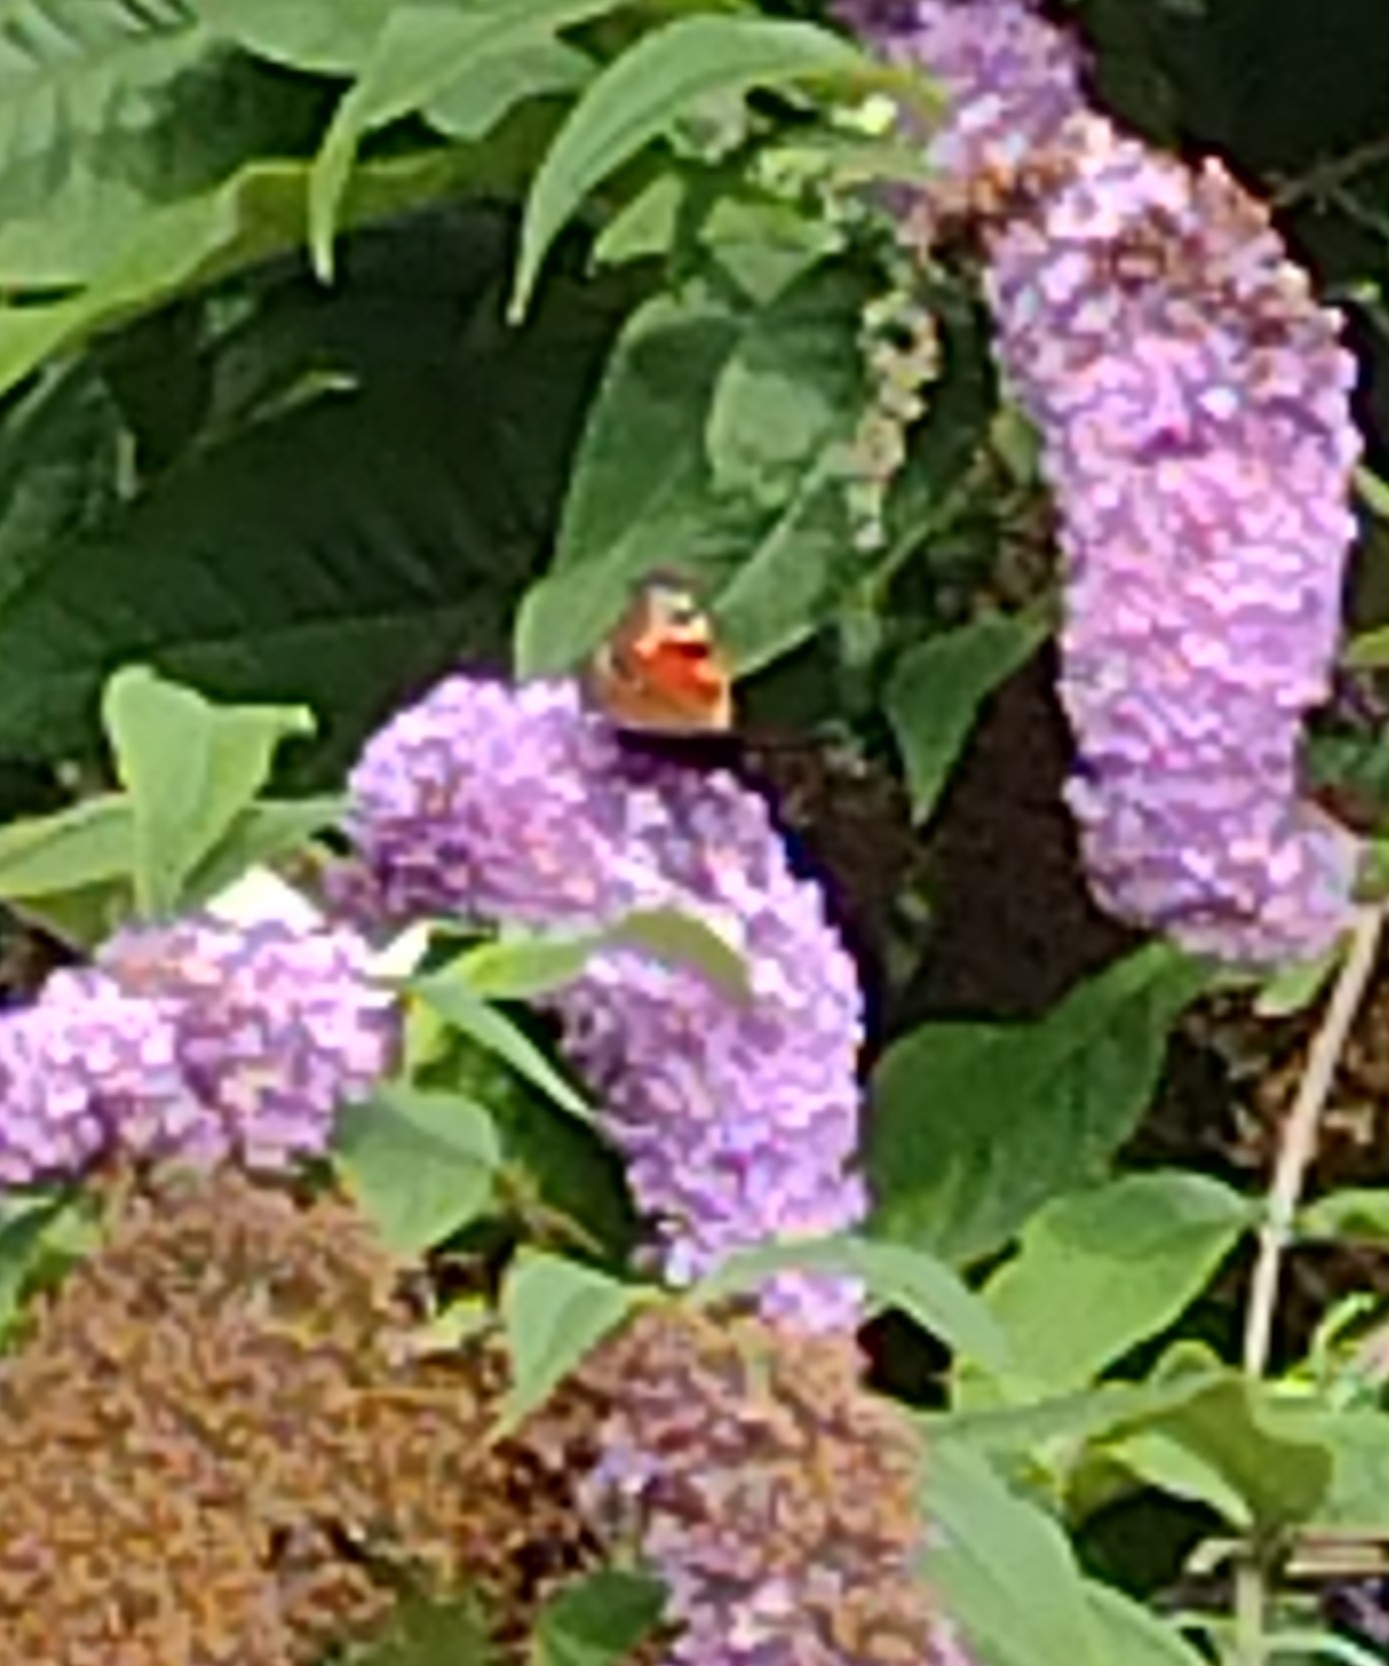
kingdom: Animalia
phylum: Arthropoda
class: Insecta
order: Lepidoptera
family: Nymphalidae
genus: Aglais
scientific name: Aglais io
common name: Peacock
